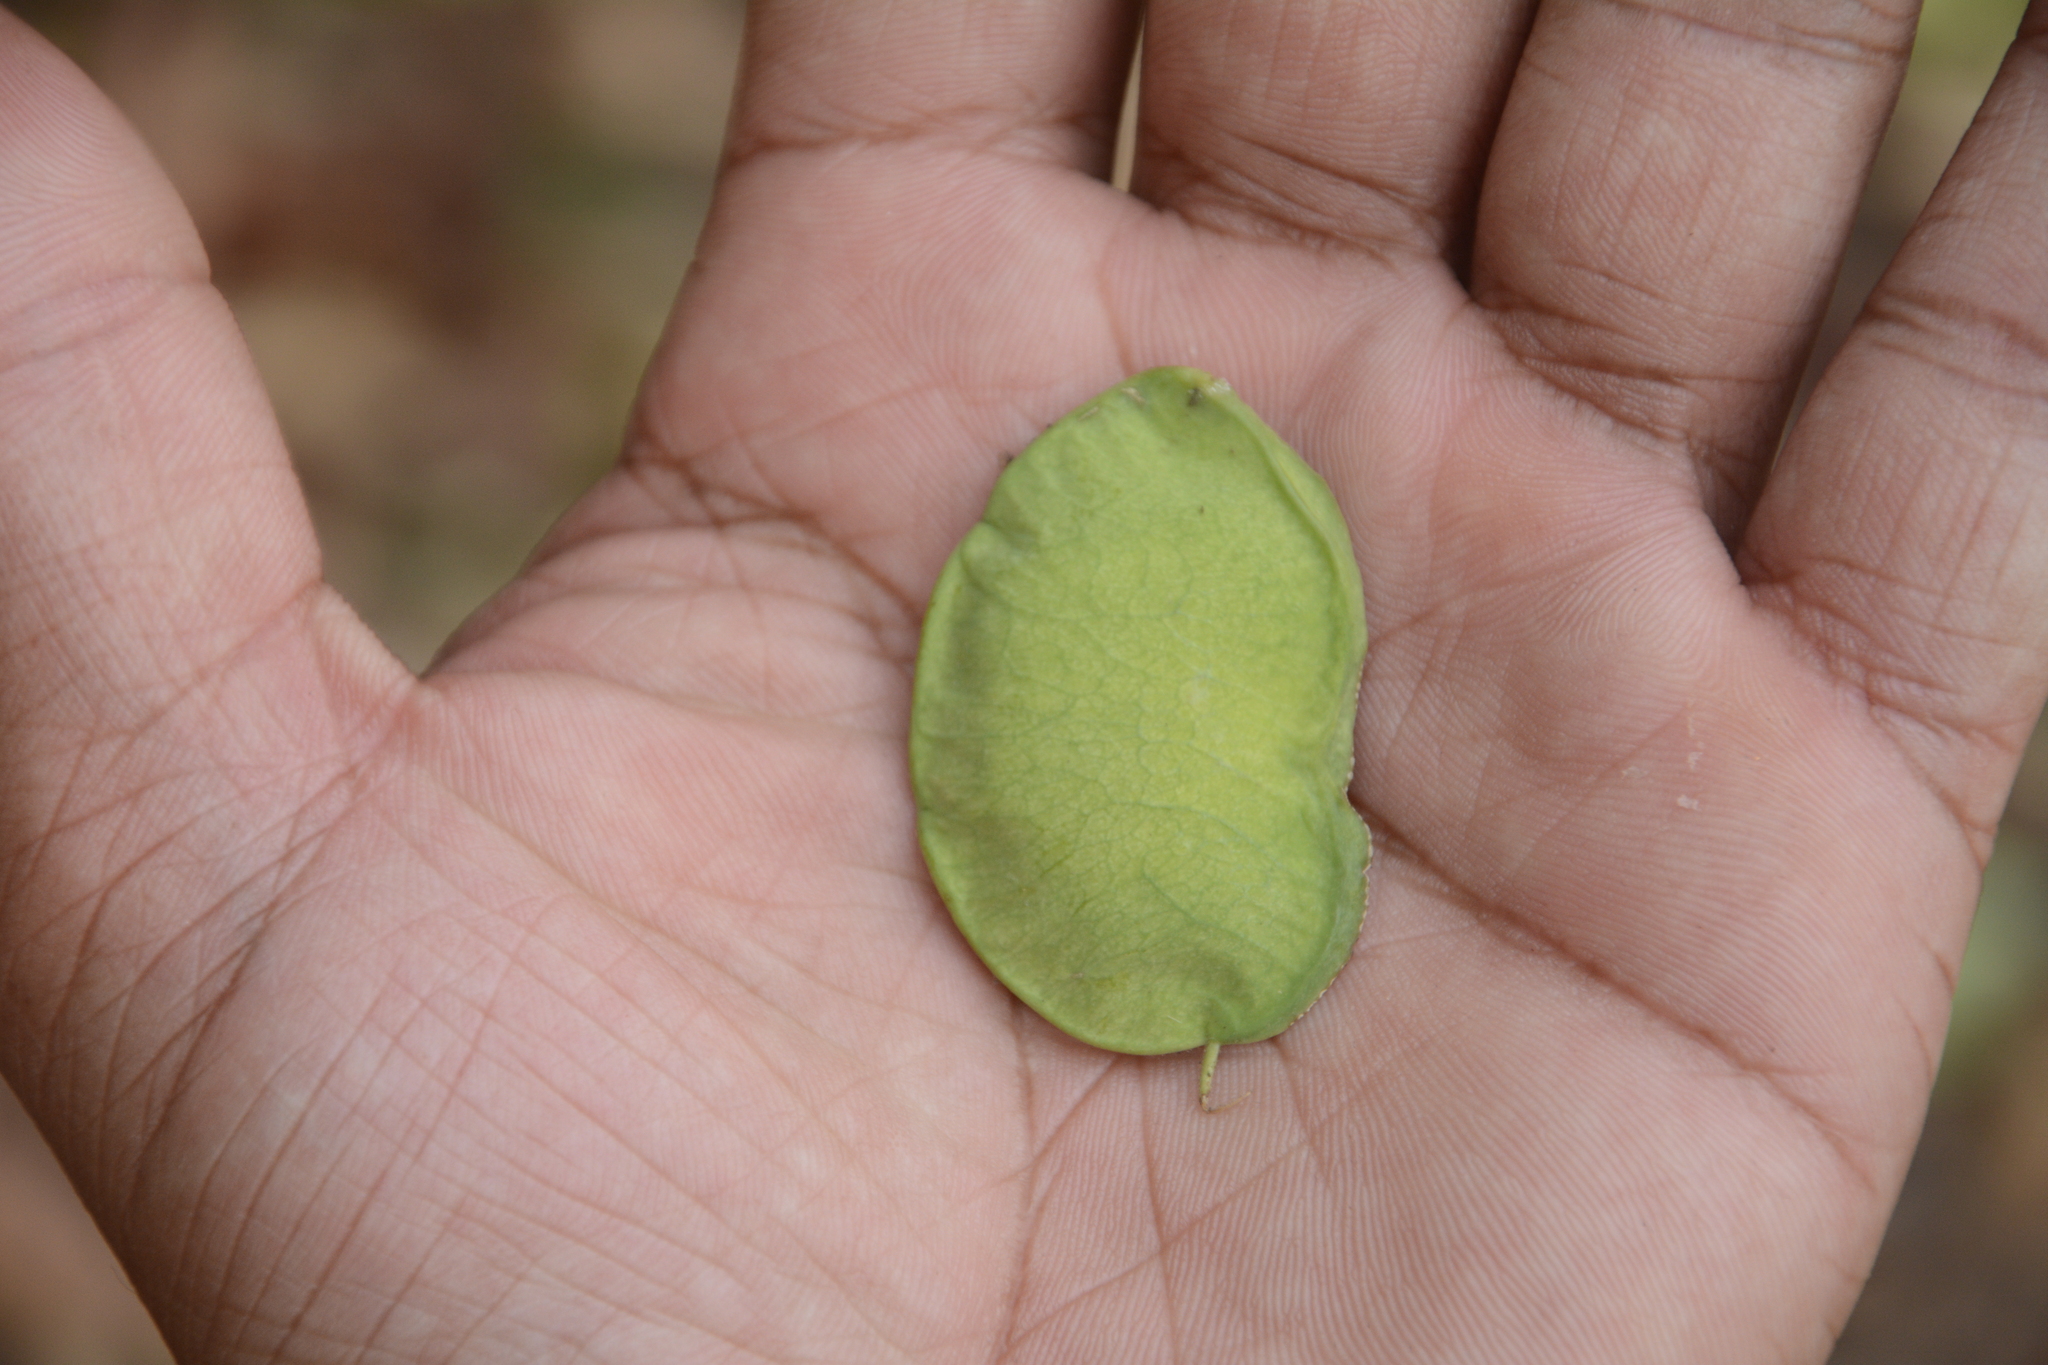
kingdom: Plantae
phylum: Tracheophyta
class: Magnoliopsida
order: Fabales
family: Fabaceae
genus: Derris
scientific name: Derris trifoliata
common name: Three-leaf derris
